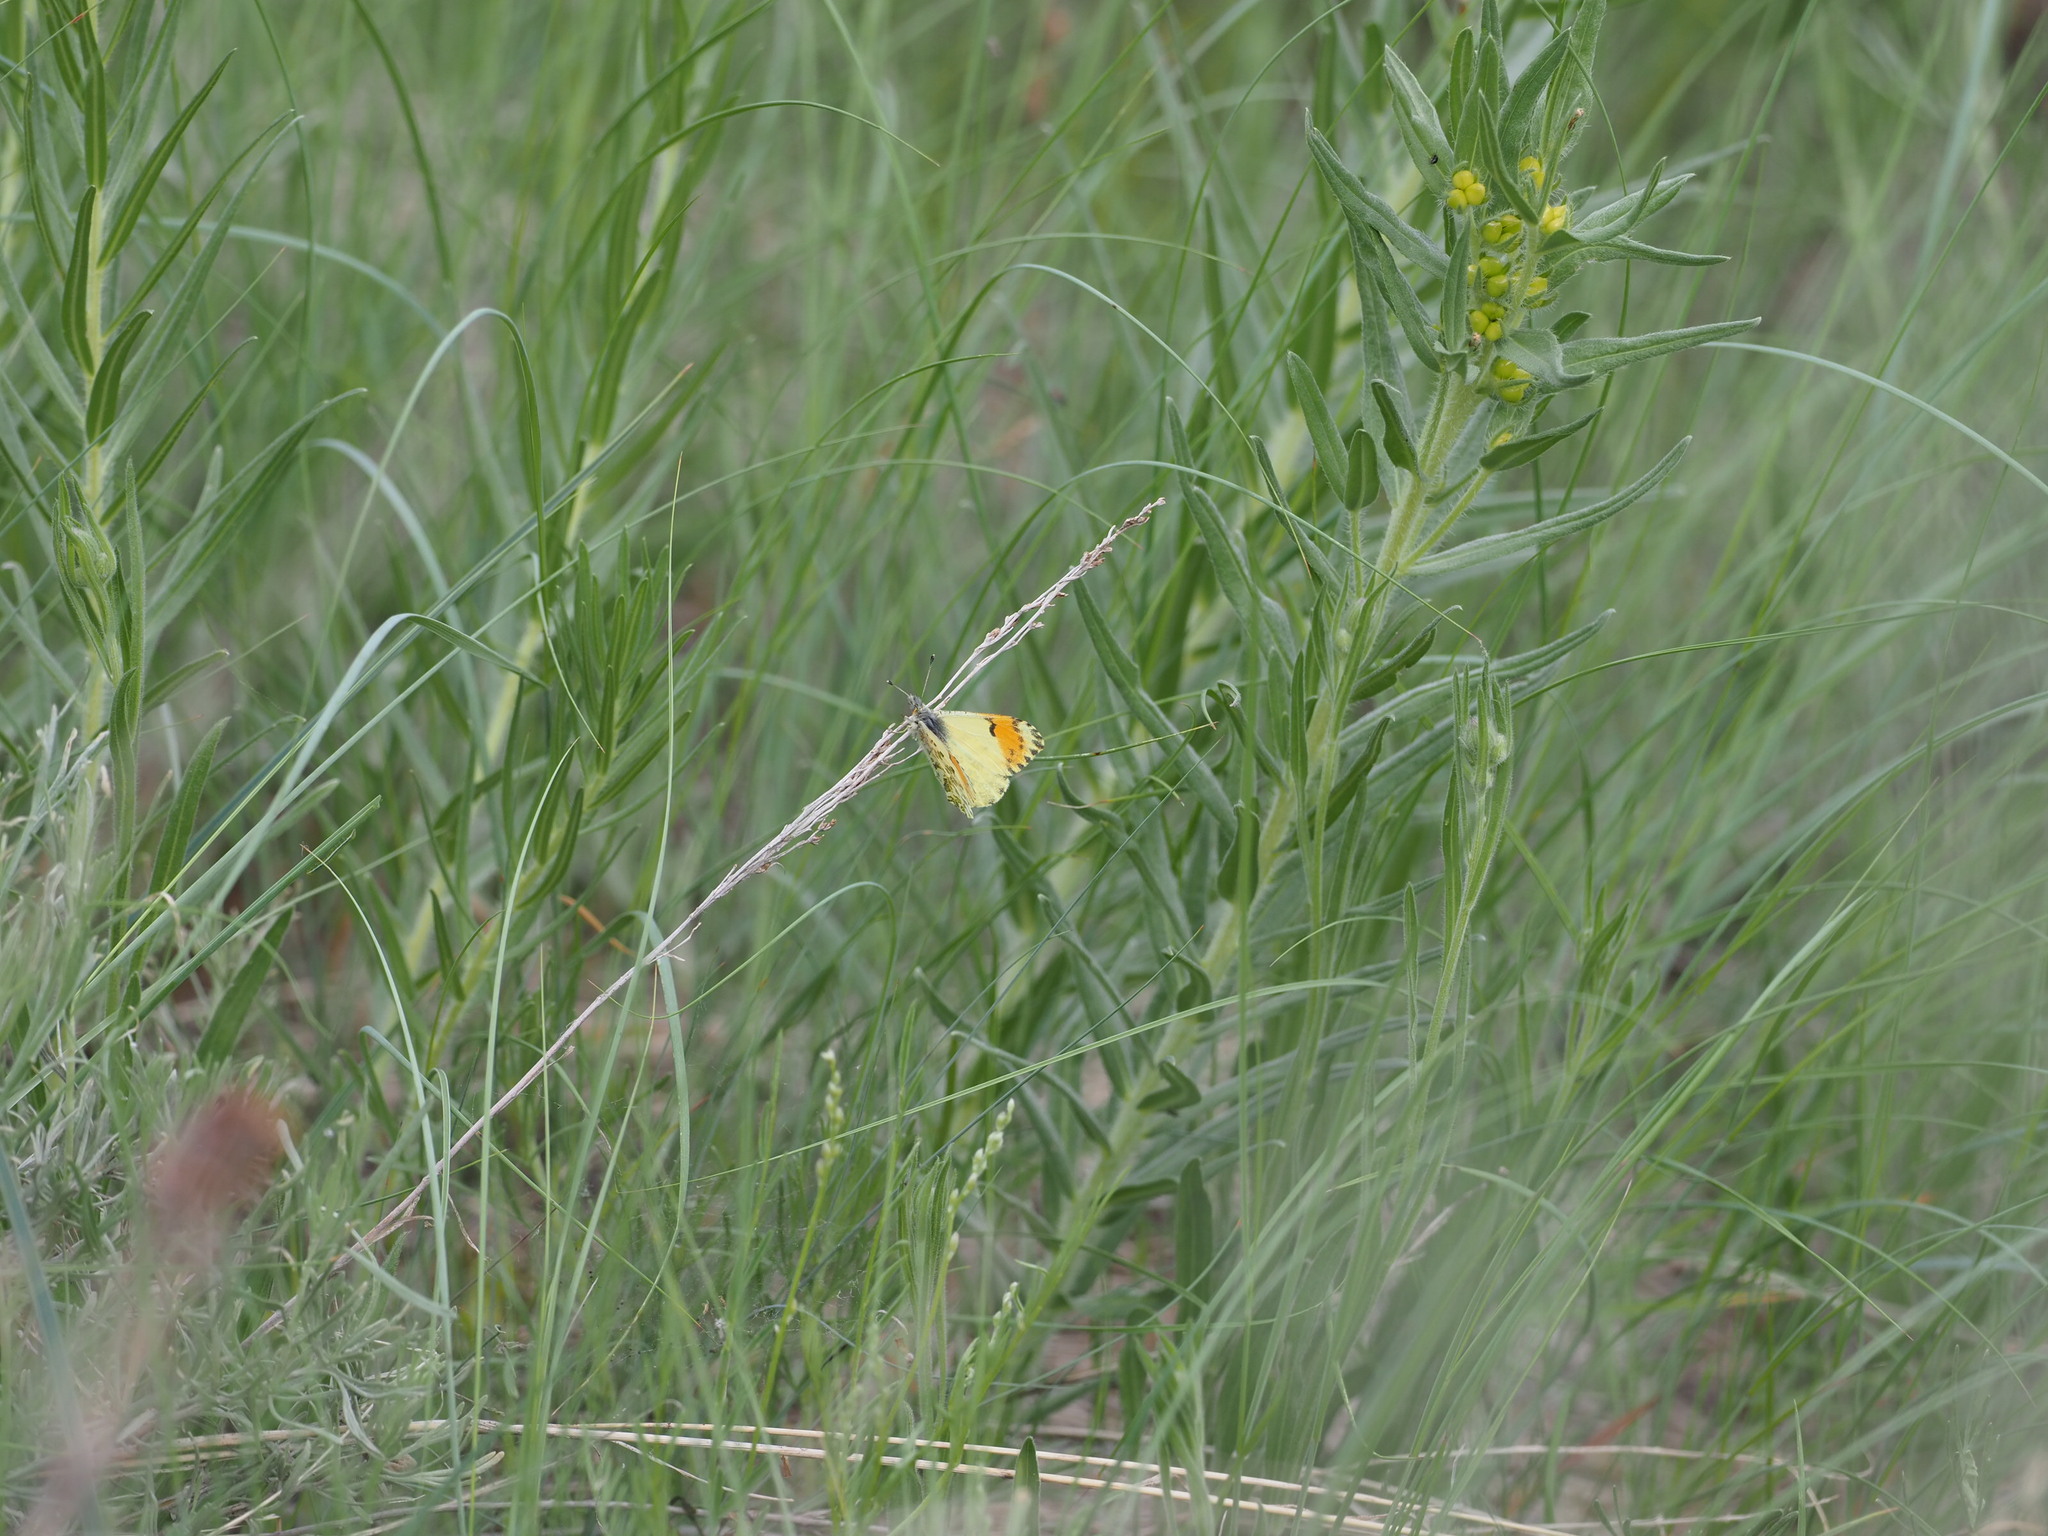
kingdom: Animalia
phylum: Arthropoda
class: Insecta
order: Lepidoptera
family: Pieridae
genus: Anthocharis
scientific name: Anthocharis julia
